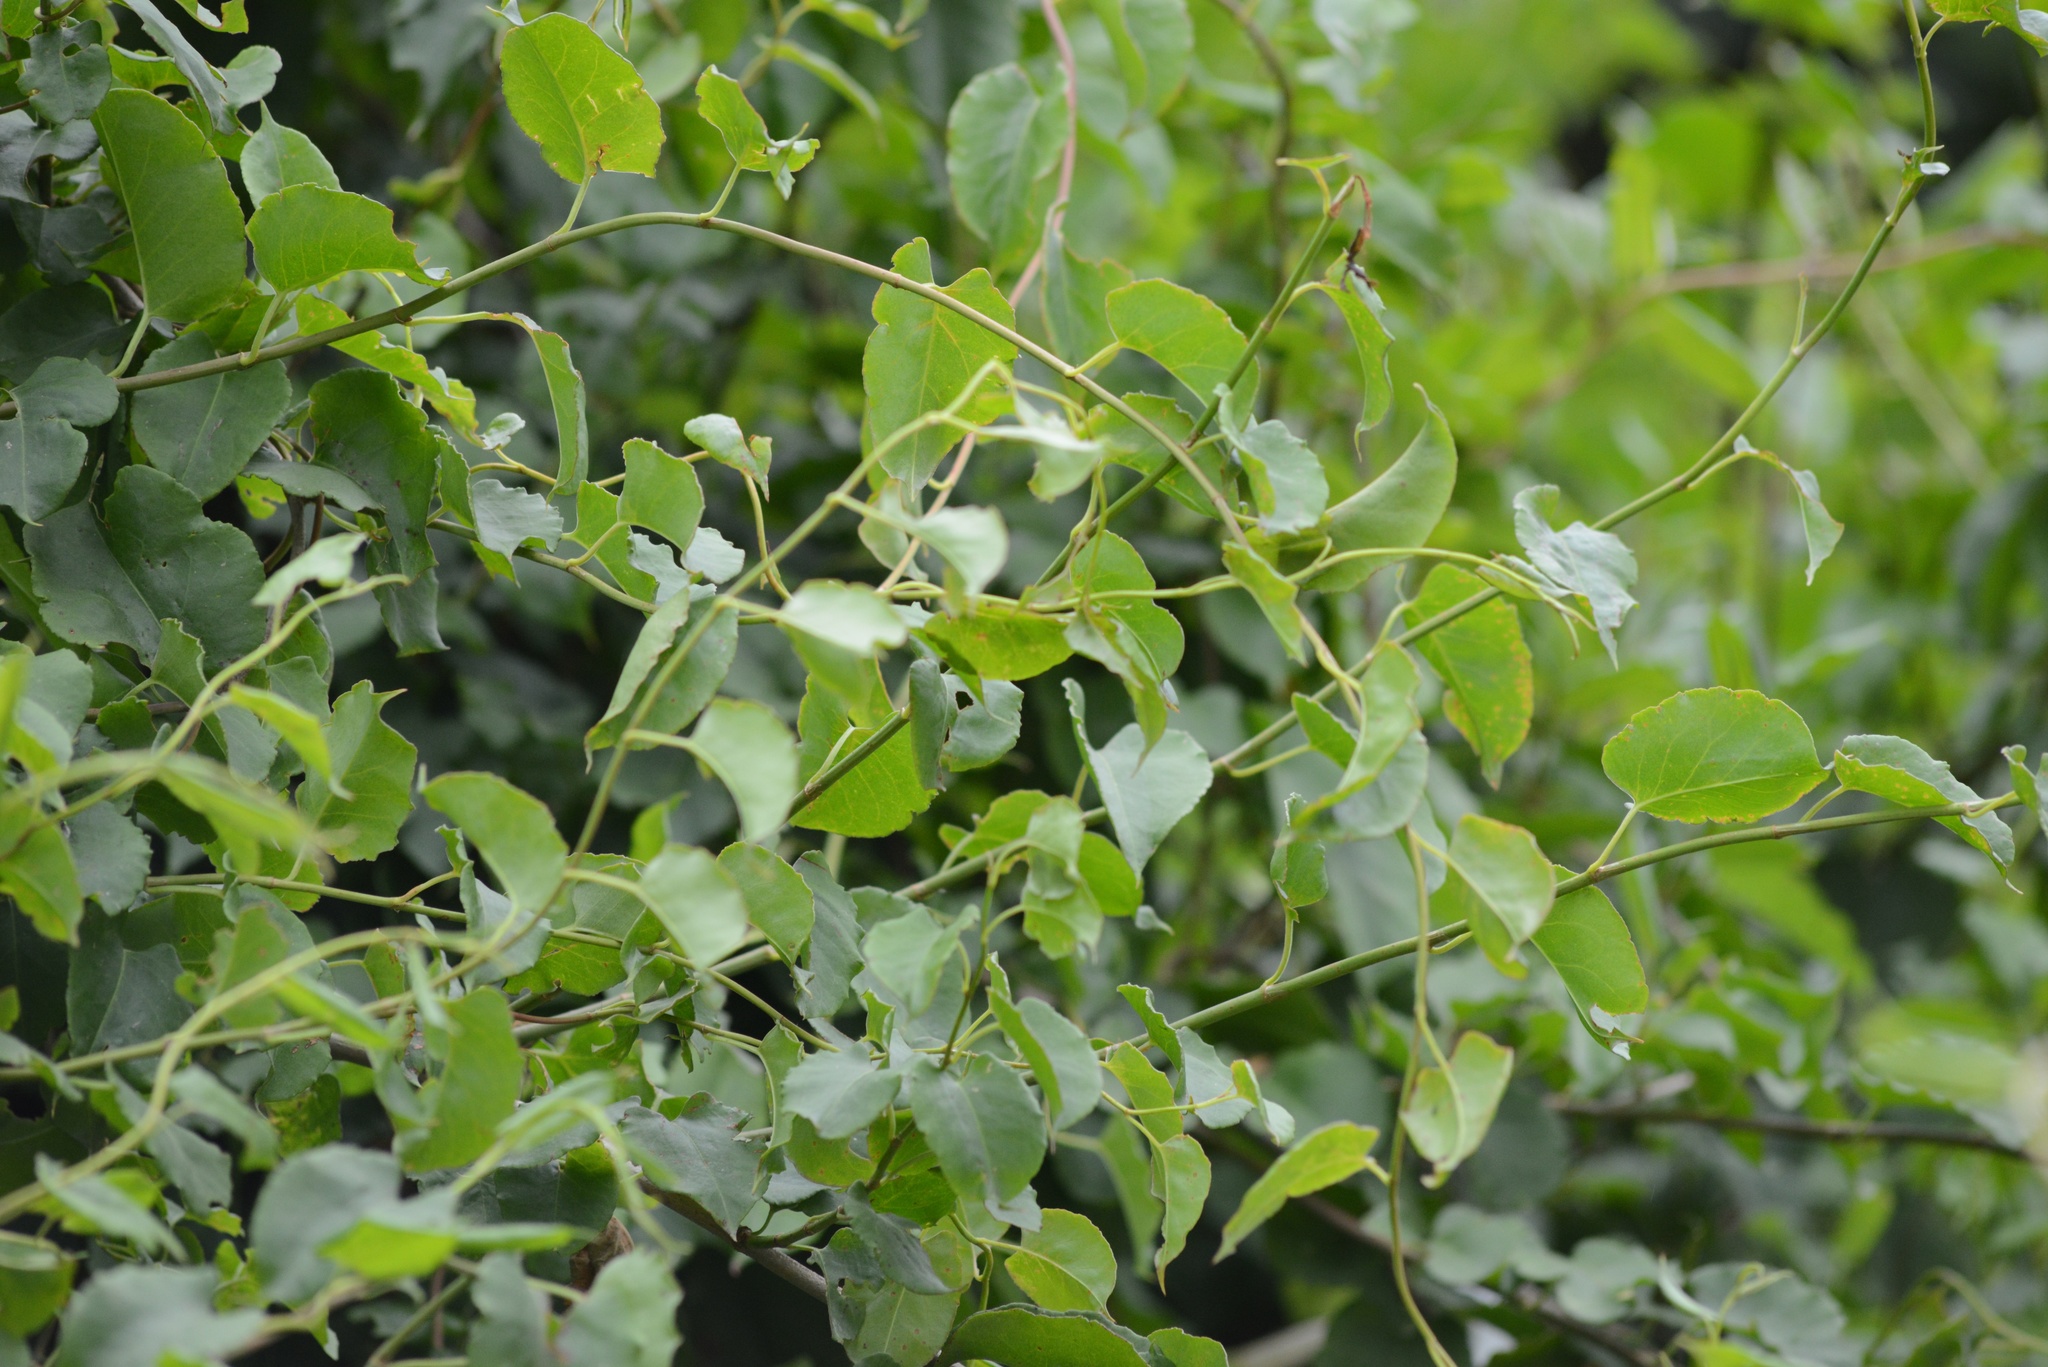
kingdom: Plantae
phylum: Tracheophyta
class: Magnoliopsida
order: Caryophyllales
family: Polygonaceae
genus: Muehlenbeckia
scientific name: Muehlenbeckia australis
